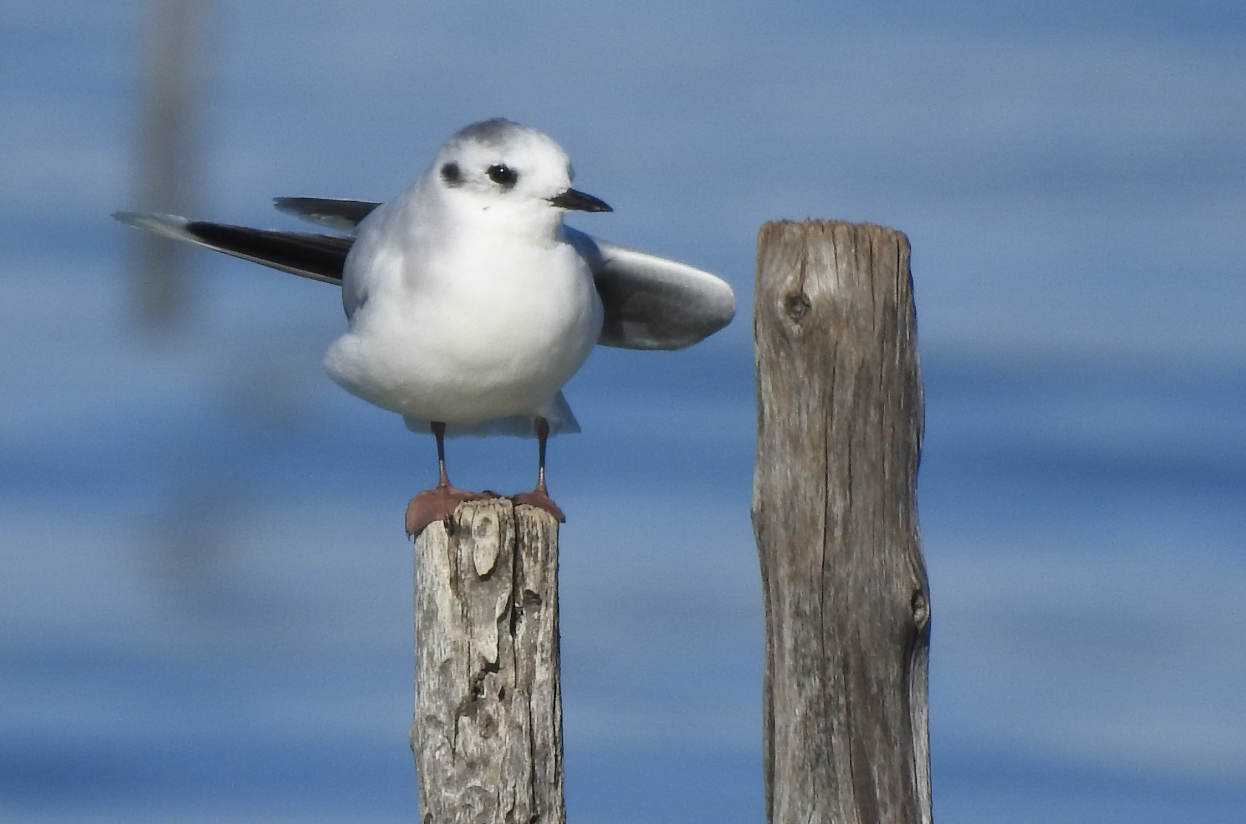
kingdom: Animalia
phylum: Chordata
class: Aves
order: Charadriiformes
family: Laridae
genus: Hydrocoloeus
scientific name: Hydrocoloeus minutus
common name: Little gull
